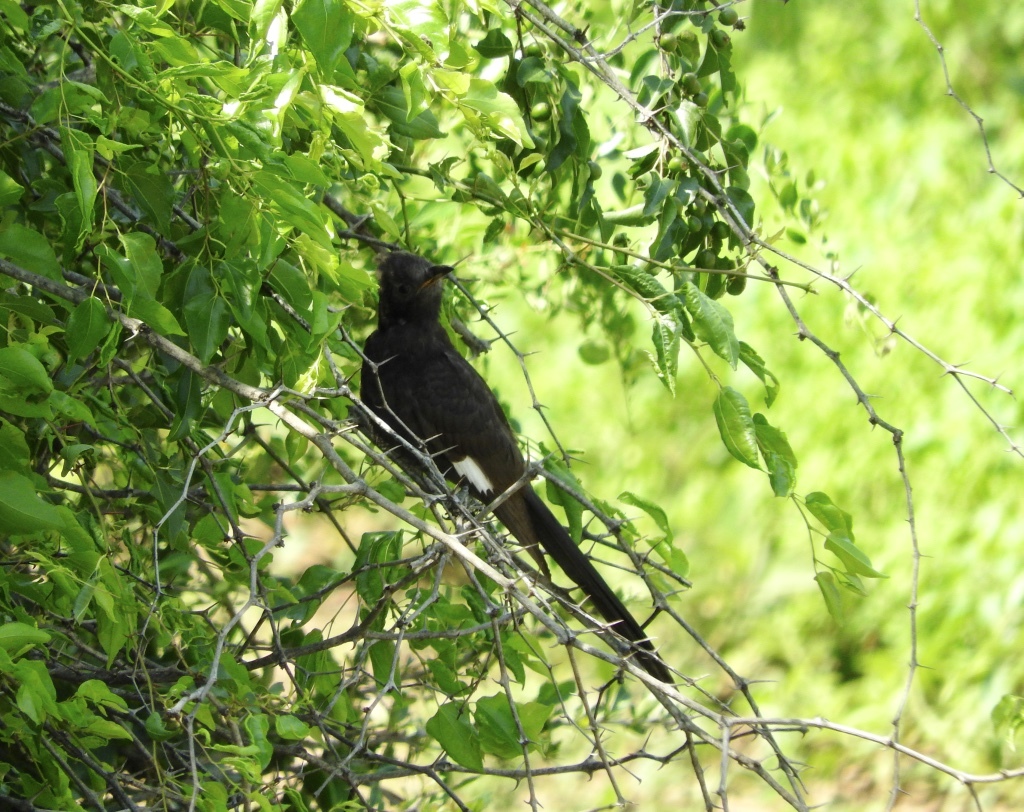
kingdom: Animalia
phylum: Chordata
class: Aves
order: Cuculiformes
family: Cuculidae
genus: Clamator
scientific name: Clamator jacobinus
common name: Jacobin cuckoo
